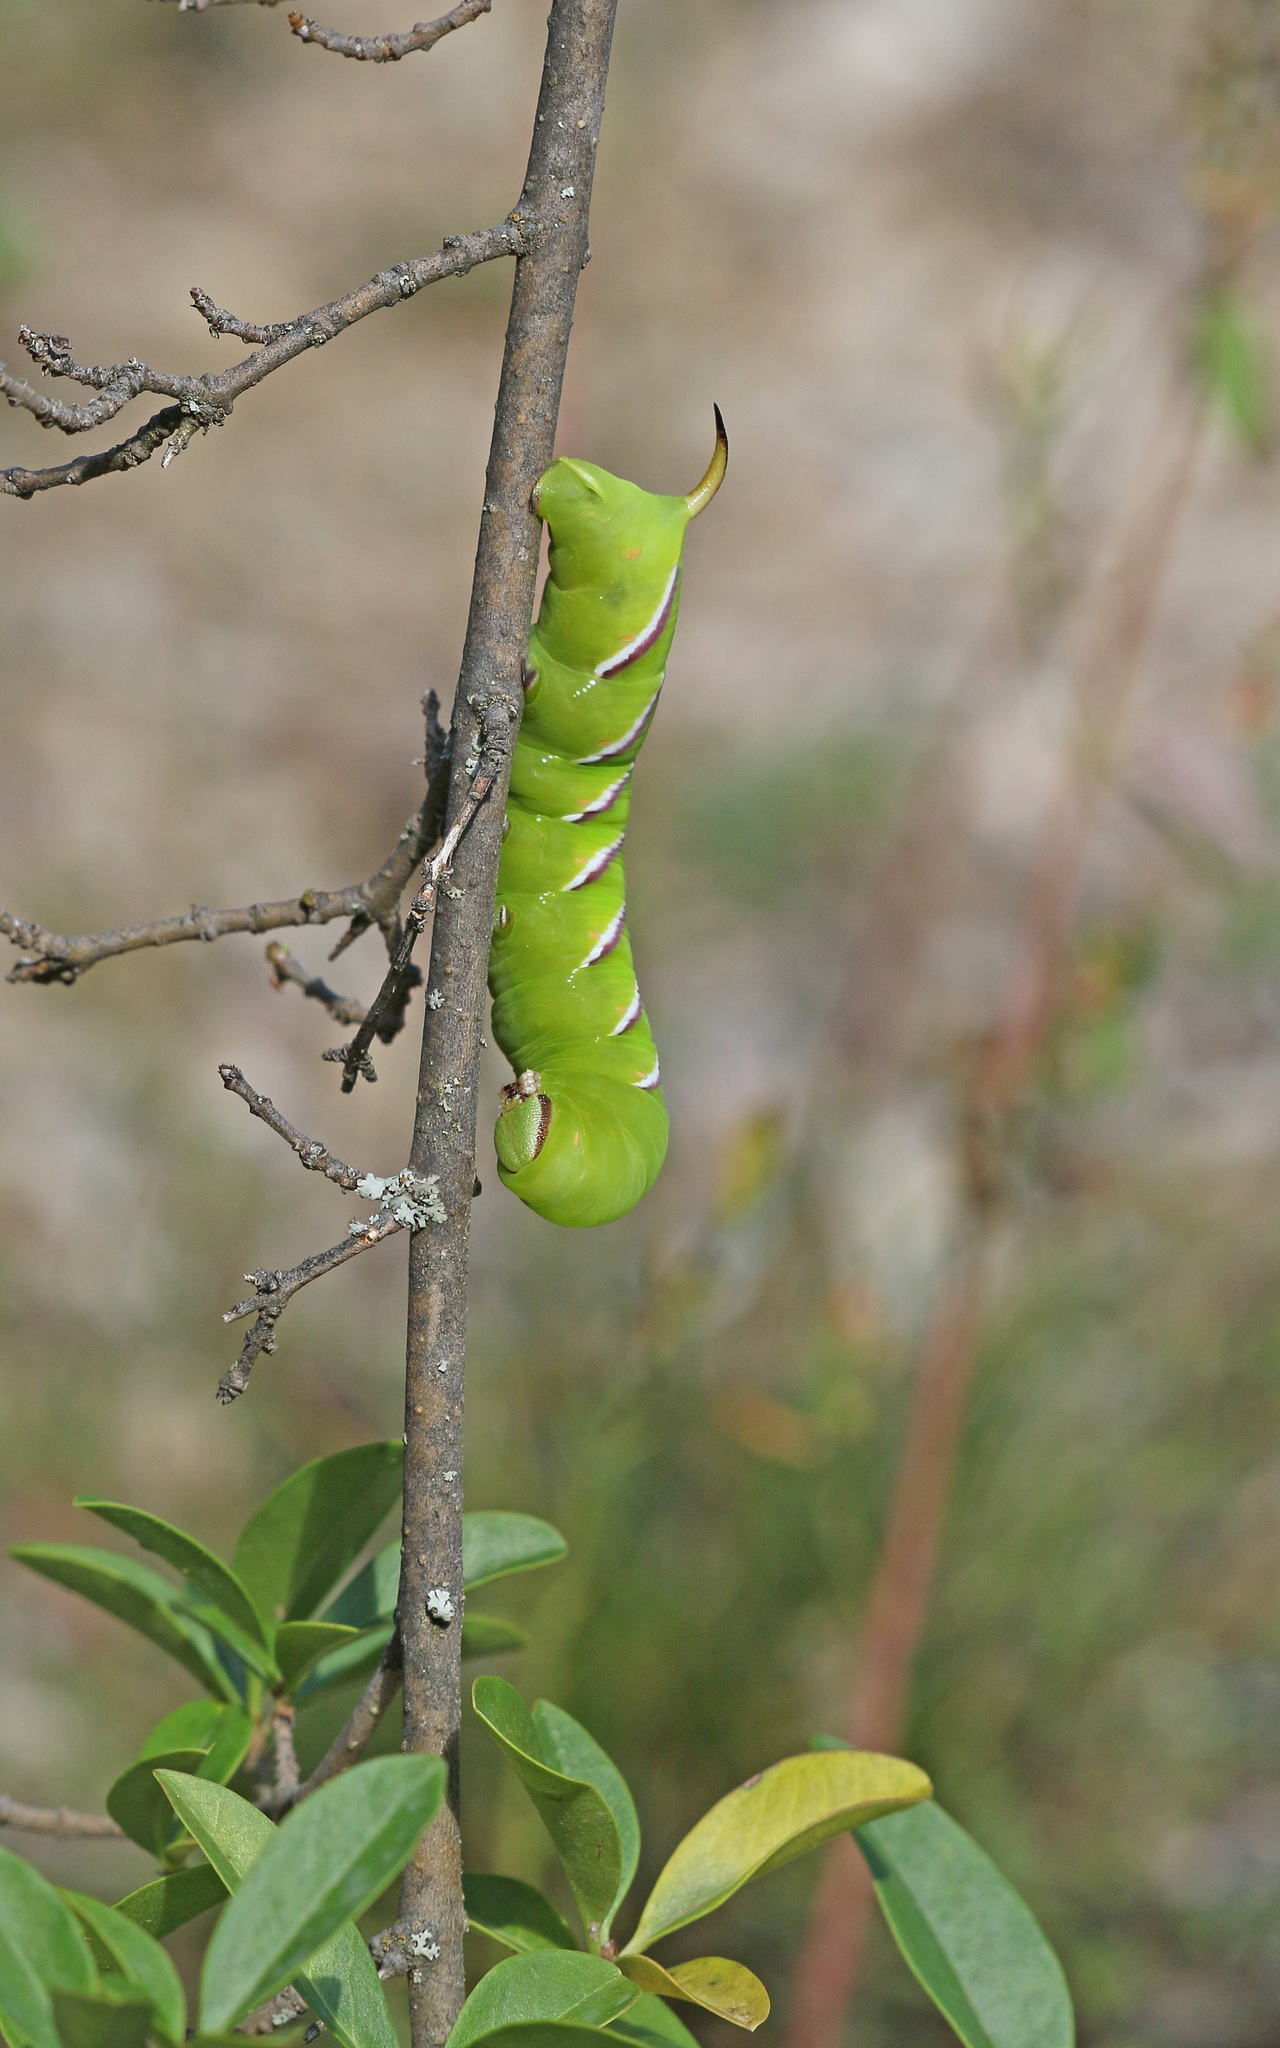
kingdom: Animalia
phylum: Arthropoda
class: Insecta
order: Lepidoptera
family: Sphingidae
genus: Sphinx
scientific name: Sphinx ligustri
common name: Privet hawk-moth
